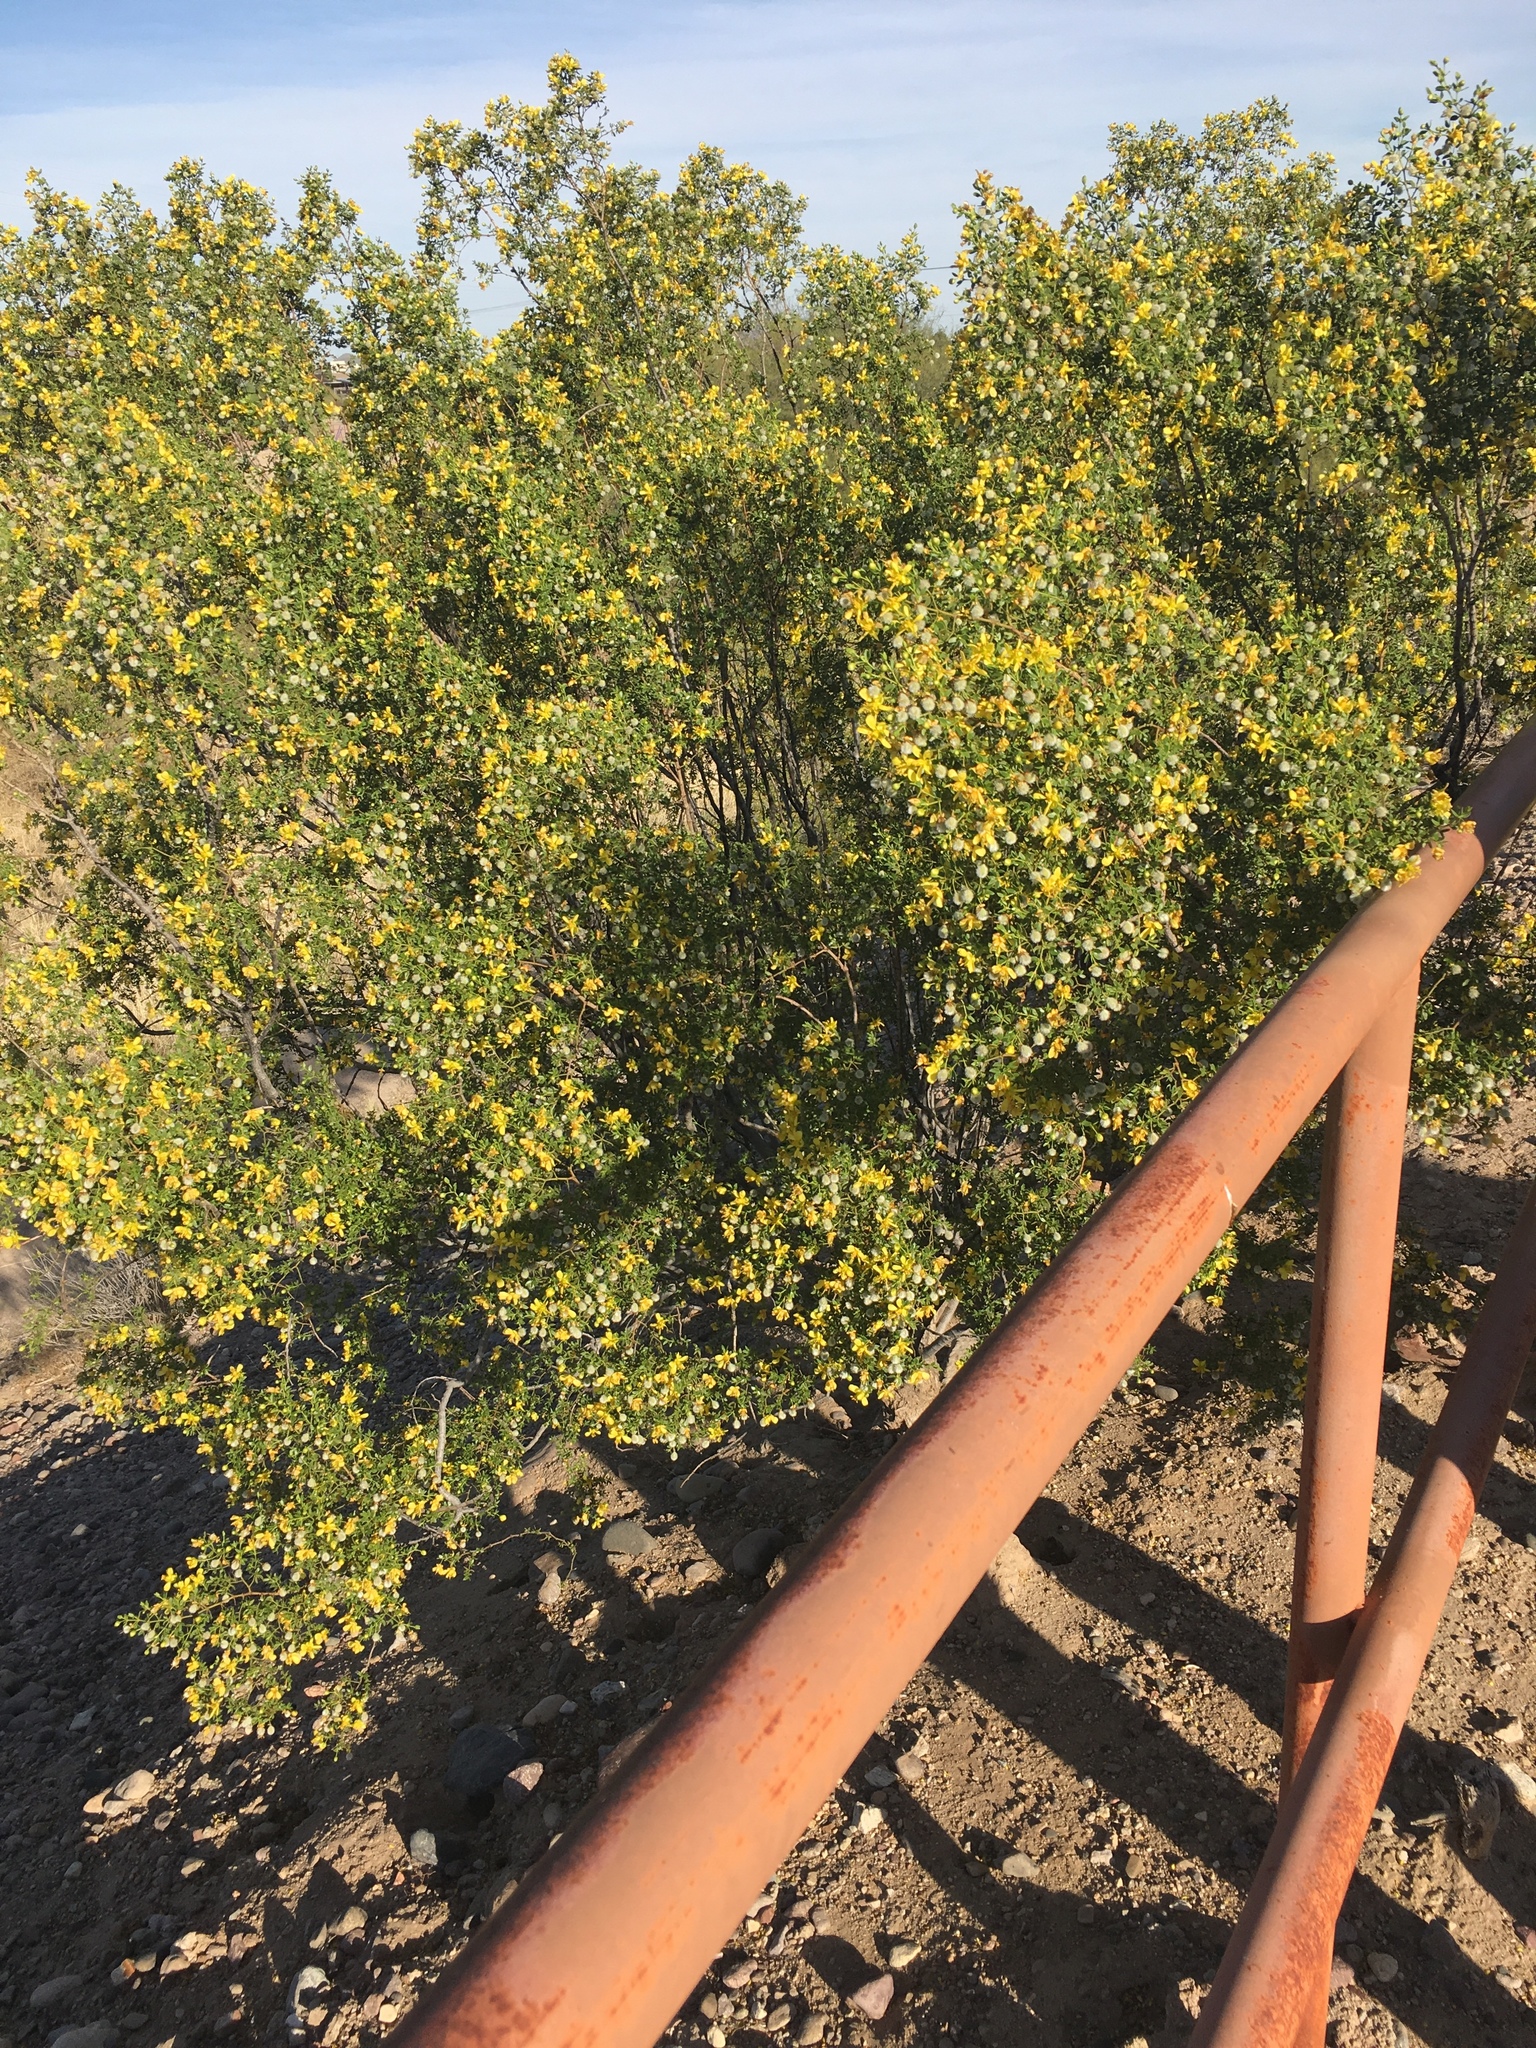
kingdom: Plantae
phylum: Tracheophyta
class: Magnoliopsida
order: Zygophyllales
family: Zygophyllaceae
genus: Larrea
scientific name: Larrea tridentata
